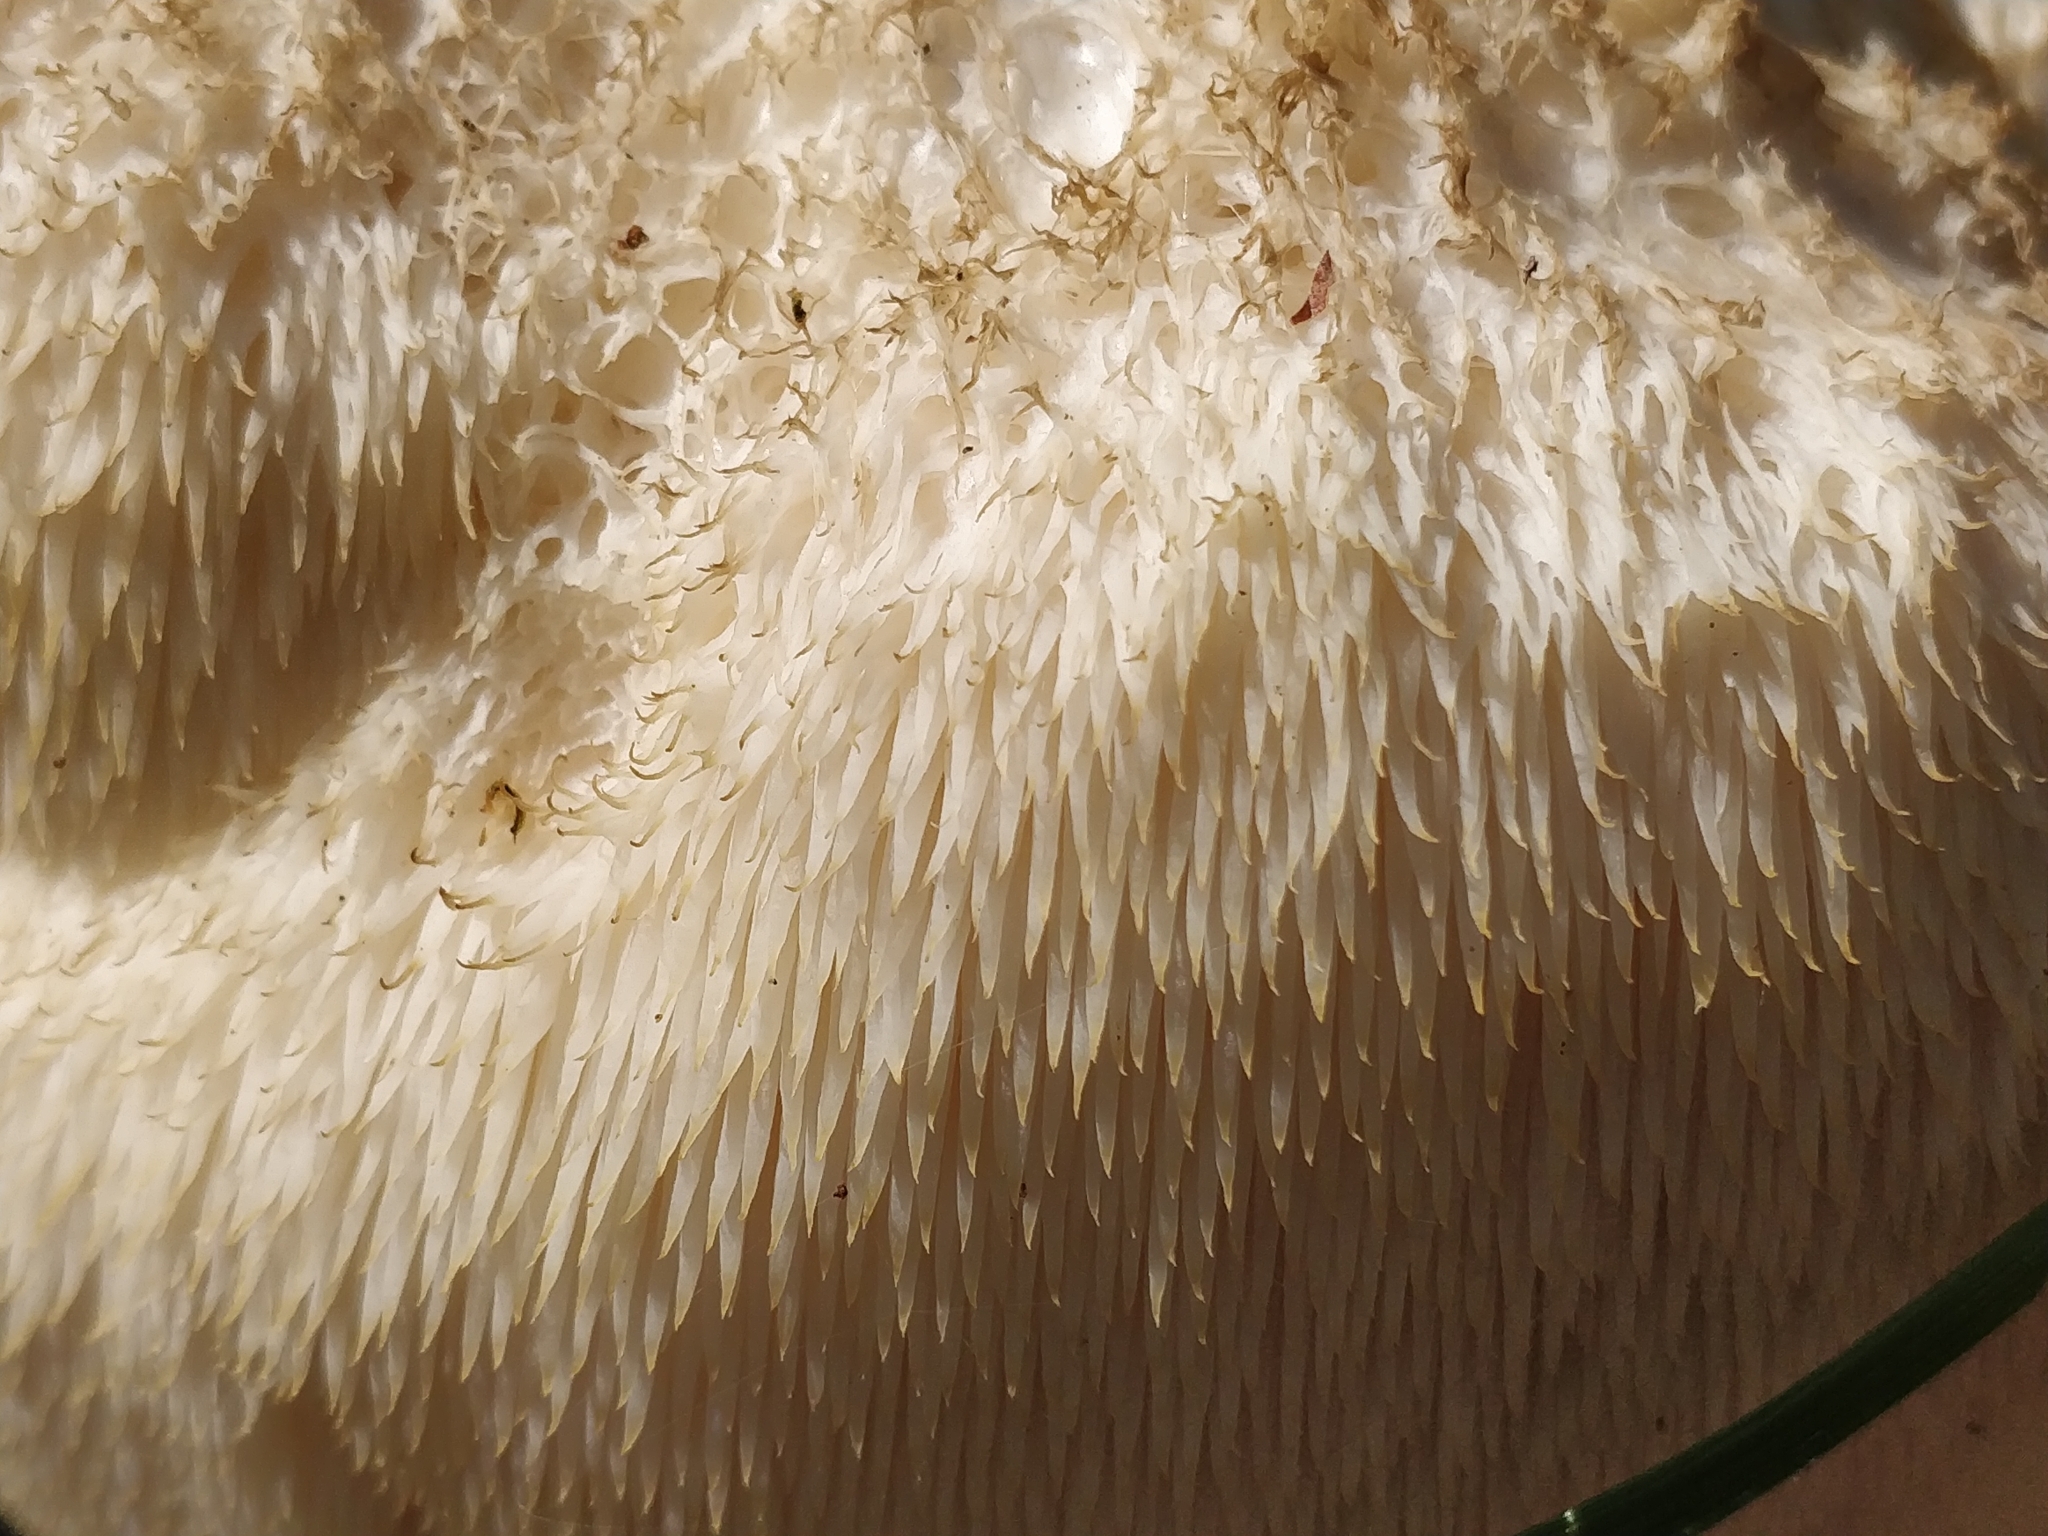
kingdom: Fungi
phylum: Basidiomycota
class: Agaricomycetes
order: Russulales
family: Hericiaceae
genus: Hericium
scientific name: Hericium erinaceus
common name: Bearded tooth
